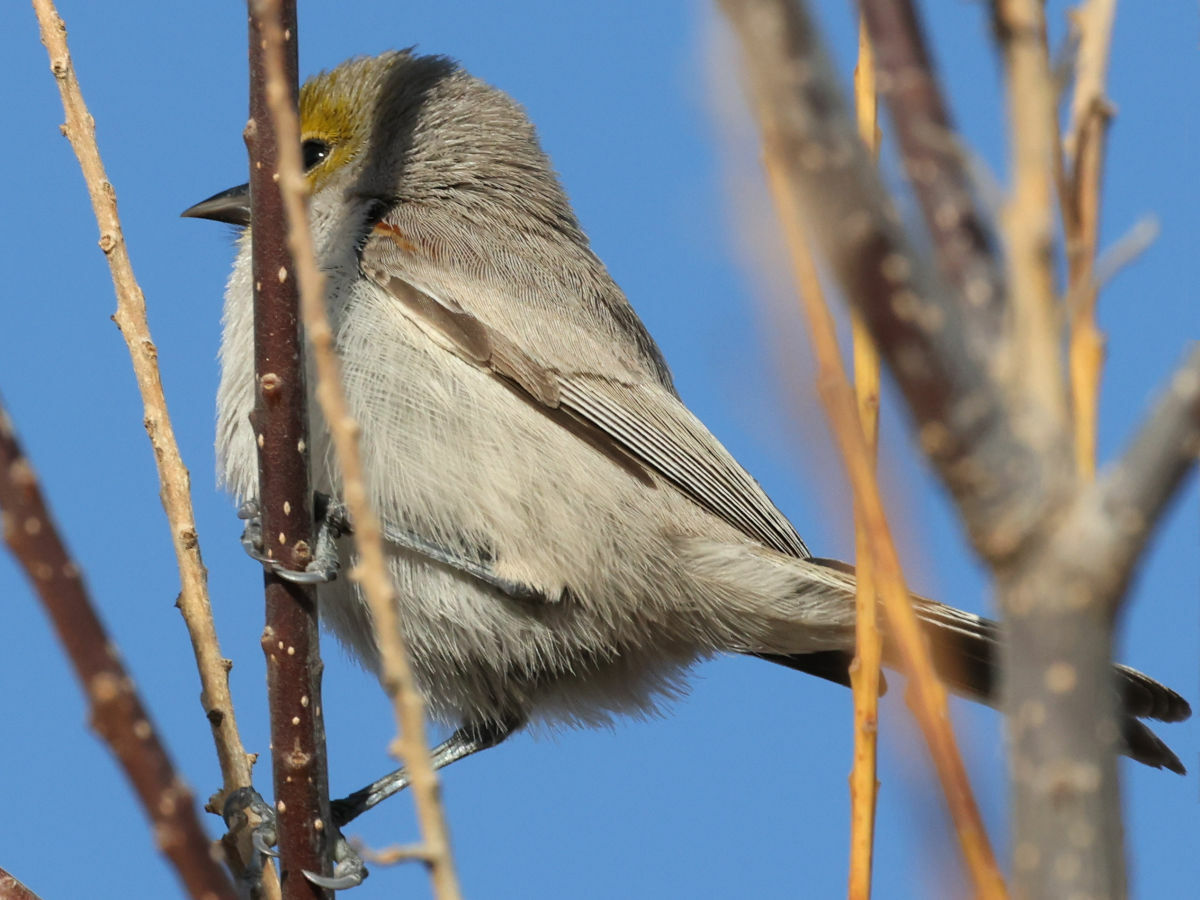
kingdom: Animalia
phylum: Chordata
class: Aves
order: Passeriformes
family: Remizidae
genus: Auriparus
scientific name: Auriparus flaviceps
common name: Verdin
